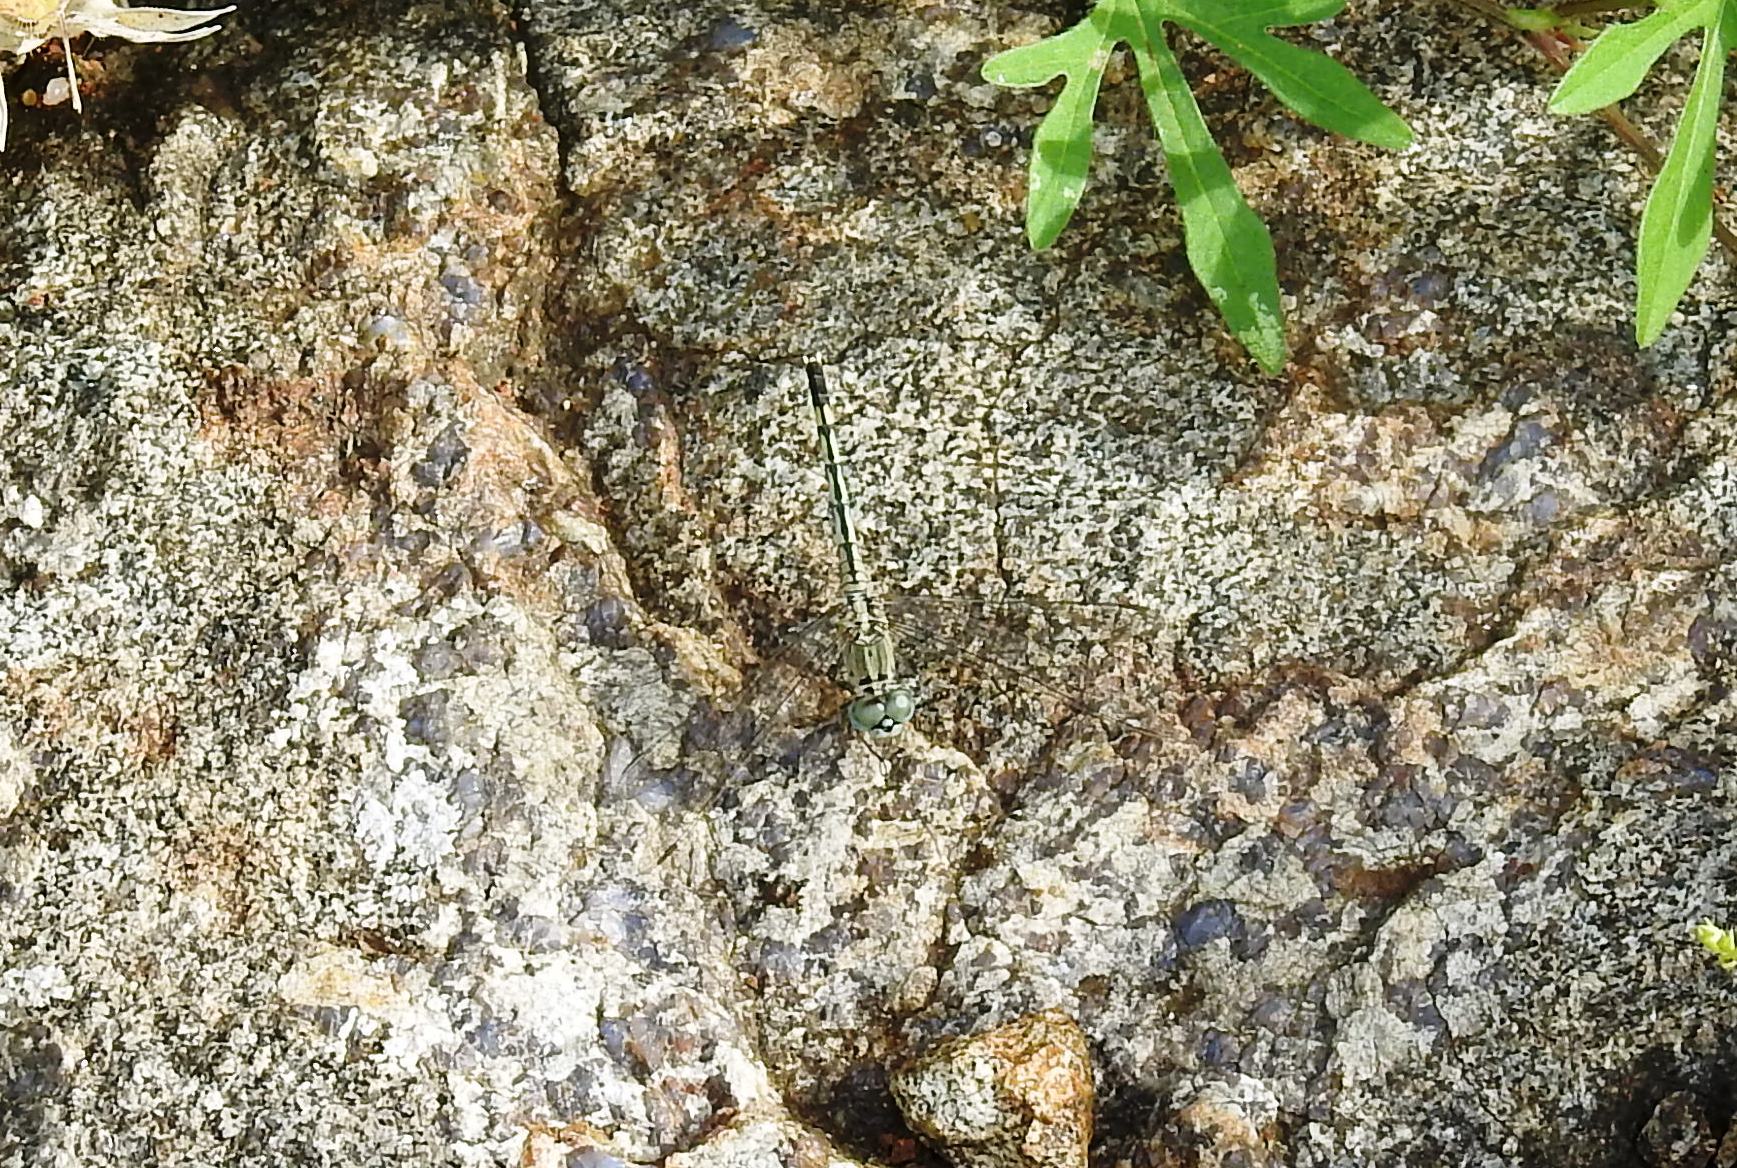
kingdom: Animalia
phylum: Arthropoda
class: Insecta
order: Odonata
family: Libellulidae
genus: Diplacodes
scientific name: Diplacodes trivialis
